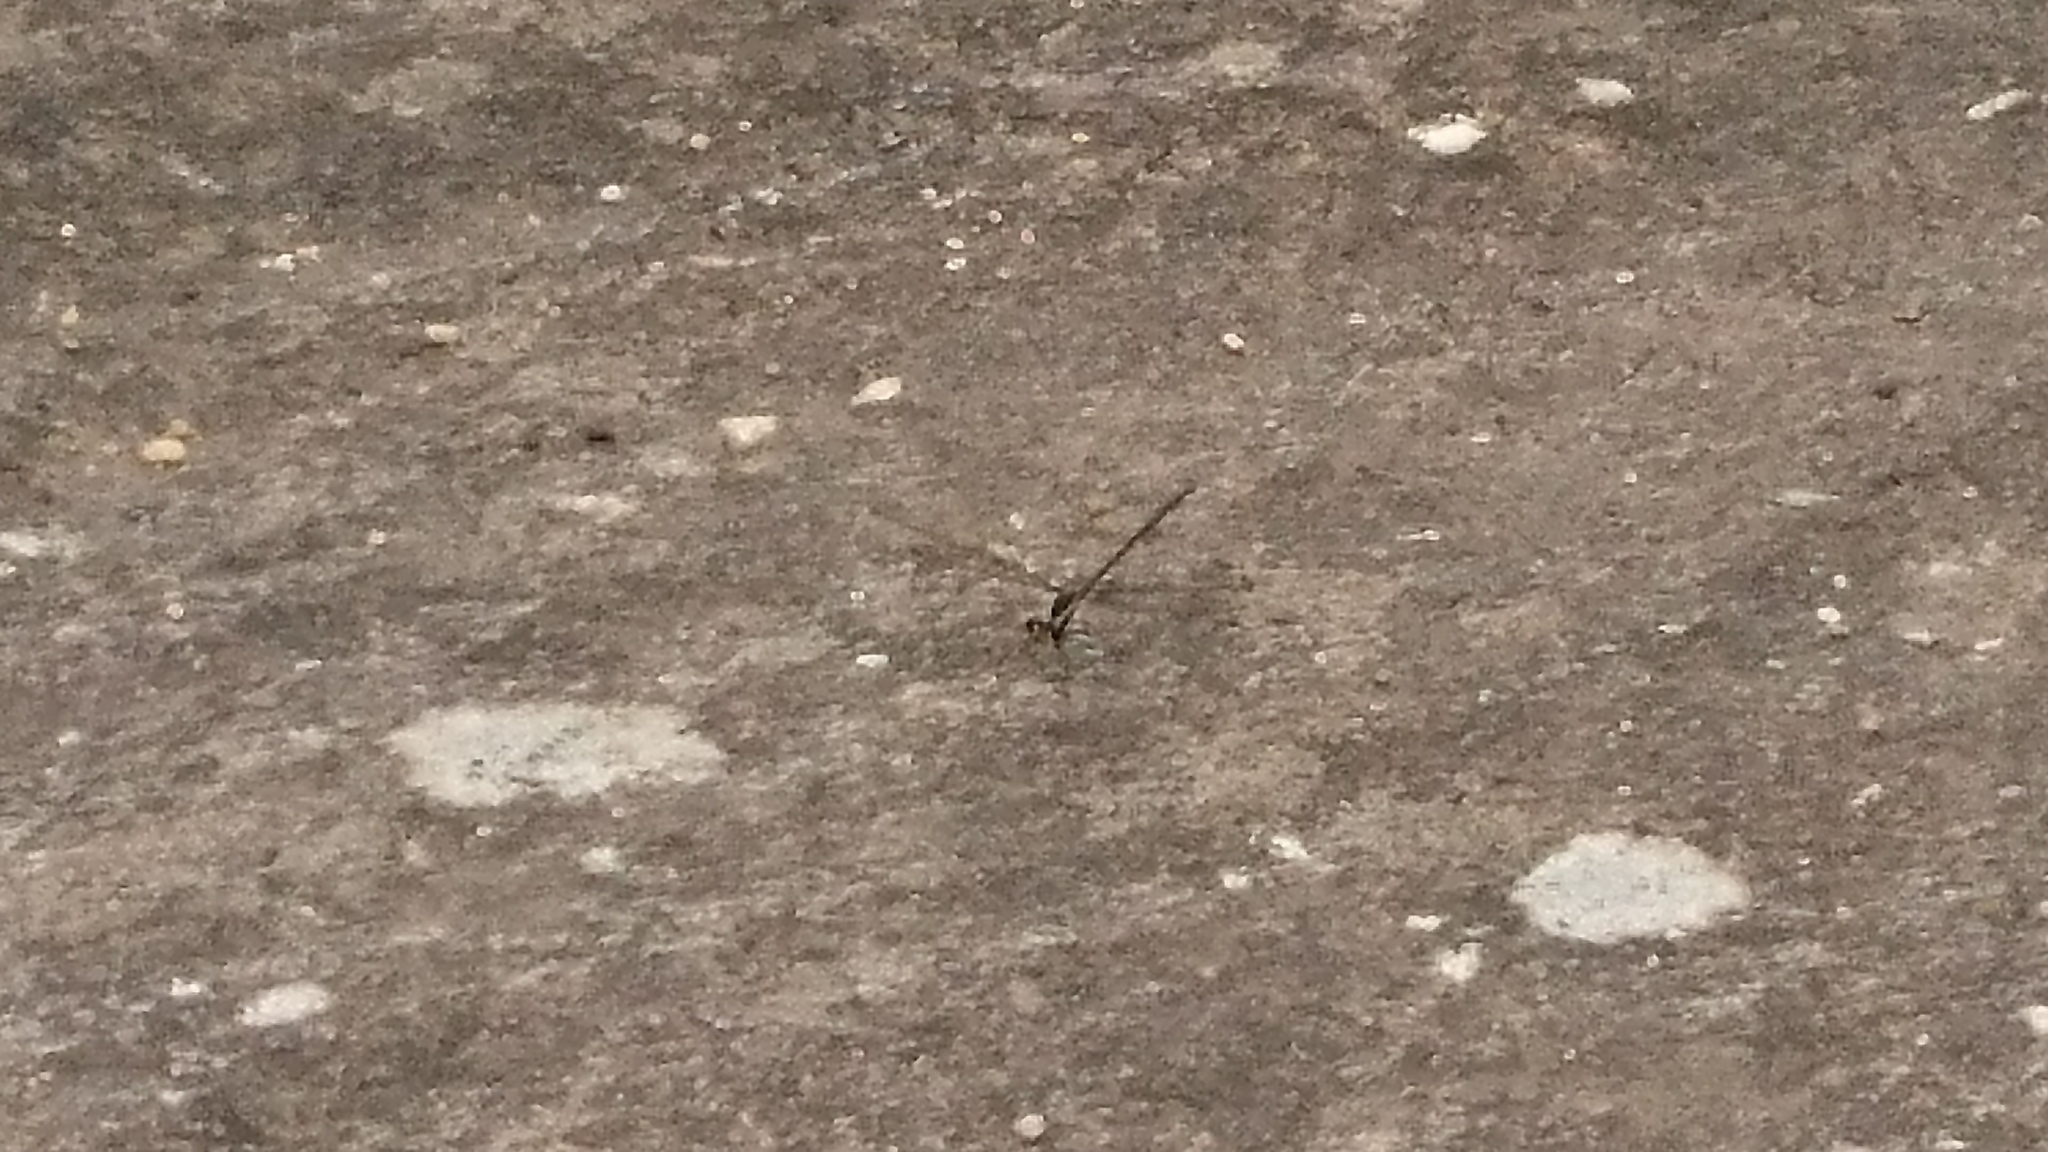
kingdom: Animalia
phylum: Arthropoda
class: Insecta
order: Odonata
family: Argiolestidae
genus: Austroargiolestes
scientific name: Austroargiolestes icteromelas
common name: Common flatwing
